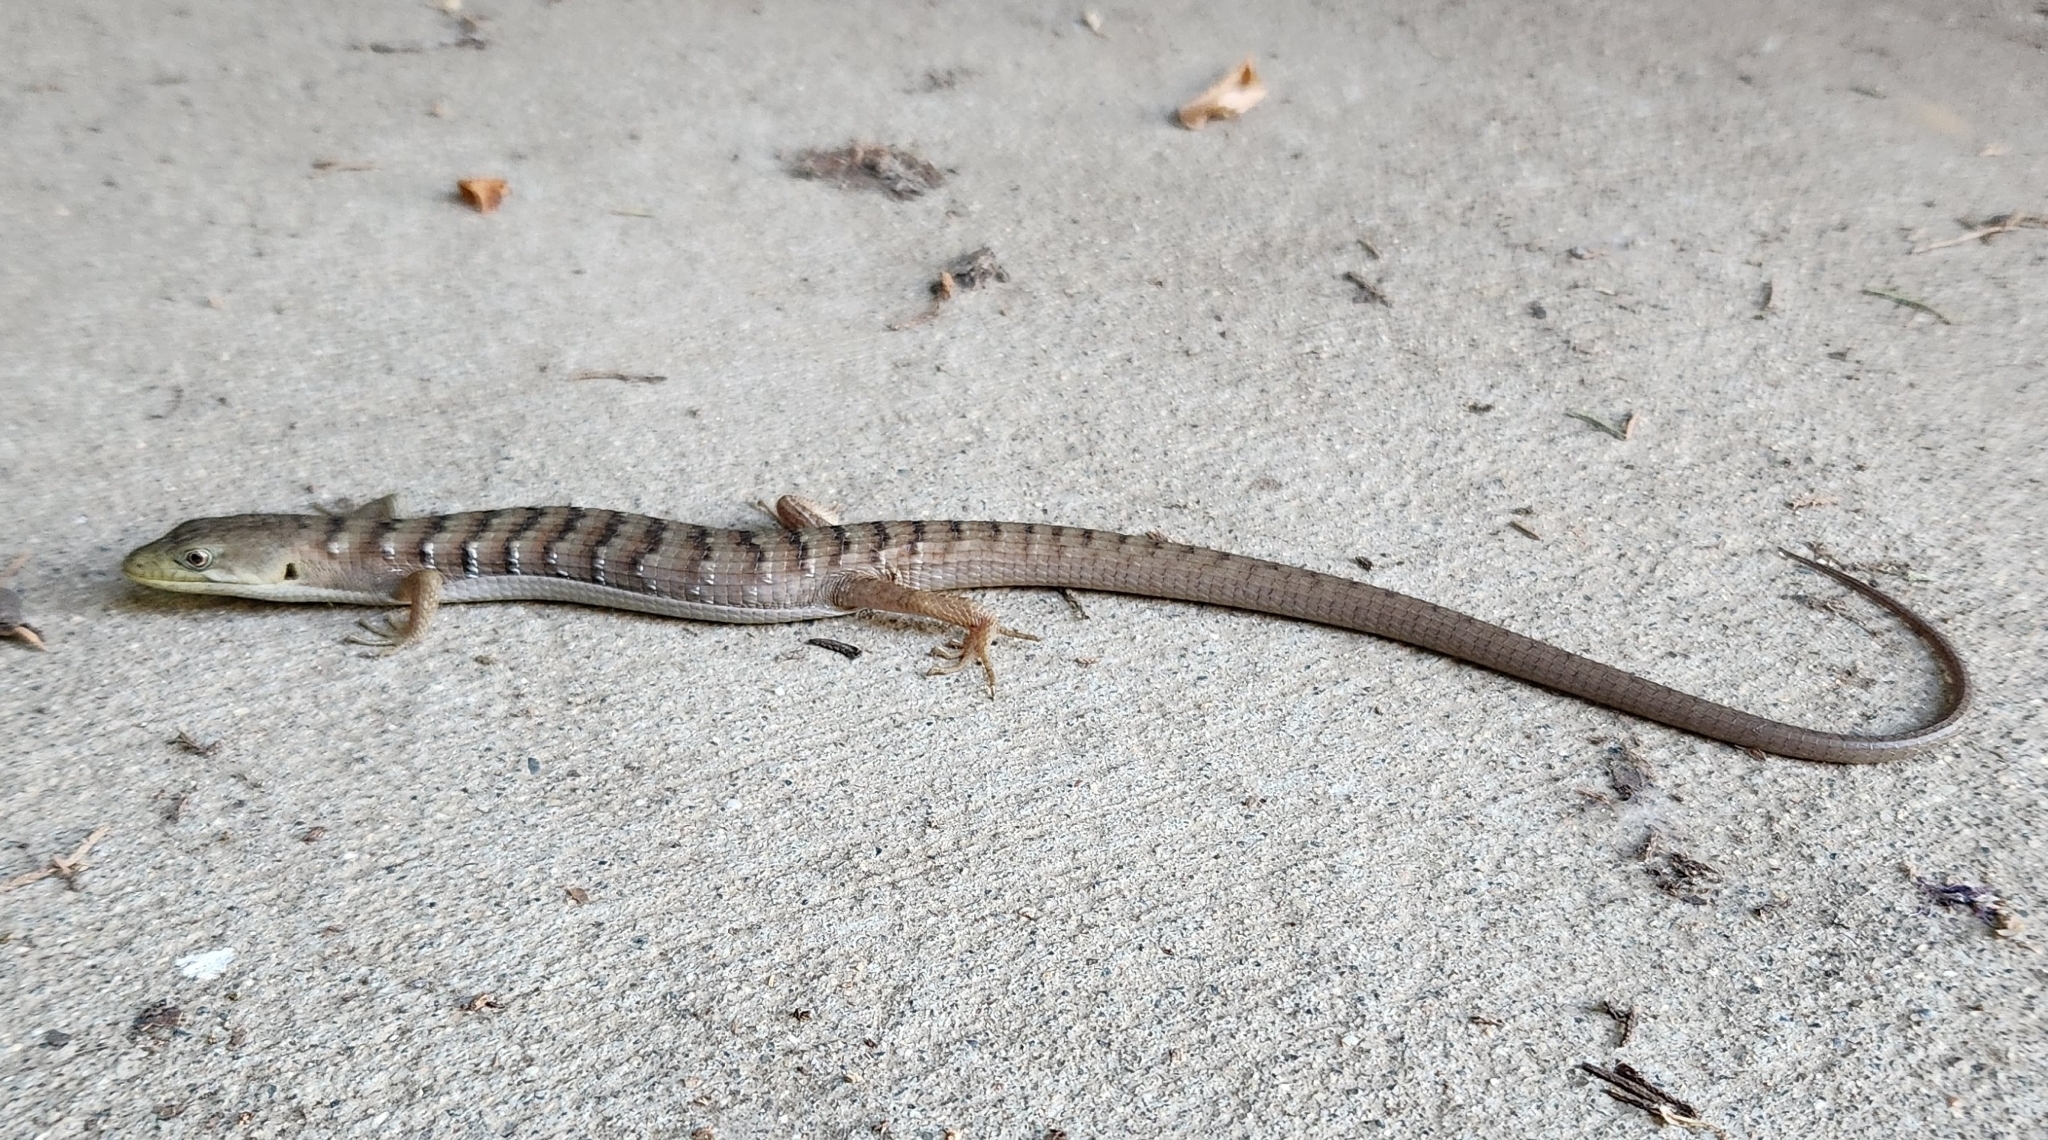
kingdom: Animalia
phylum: Chordata
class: Squamata
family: Anguidae
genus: Elgaria
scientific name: Elgaria multicarinata
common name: Southern alligator lizard
